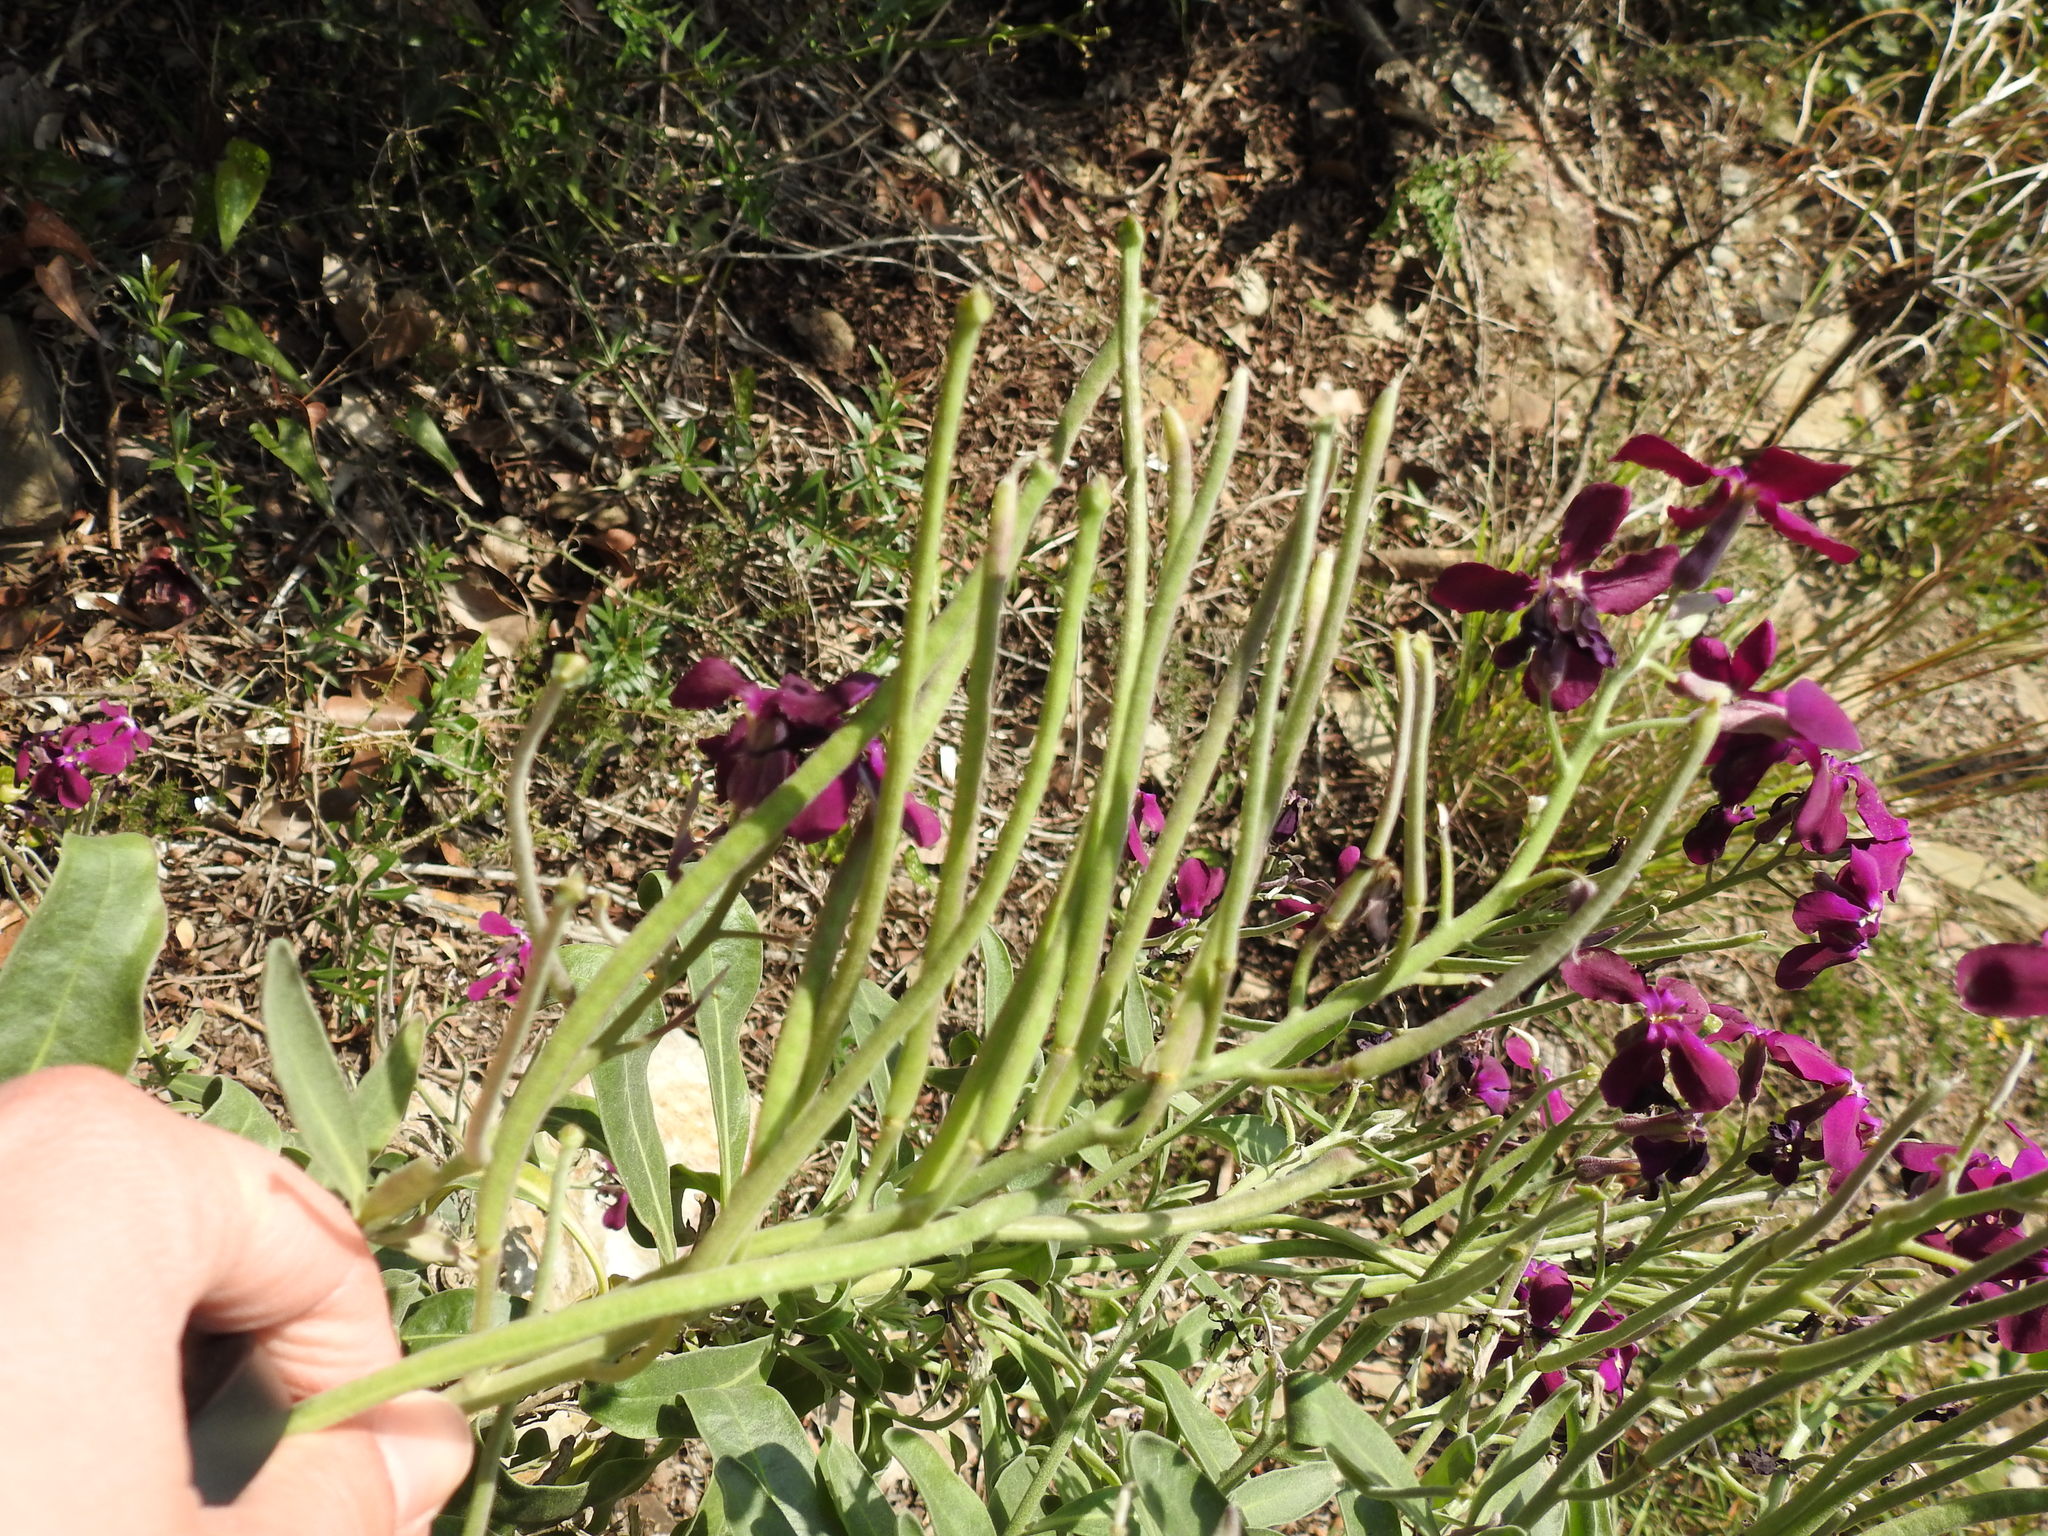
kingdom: Plantae
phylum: Tracheophyta
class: Magnoliopsida
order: Brassicales
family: Brassicaceae
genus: Matthiola
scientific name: Matthiola incana
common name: Hoary stock
